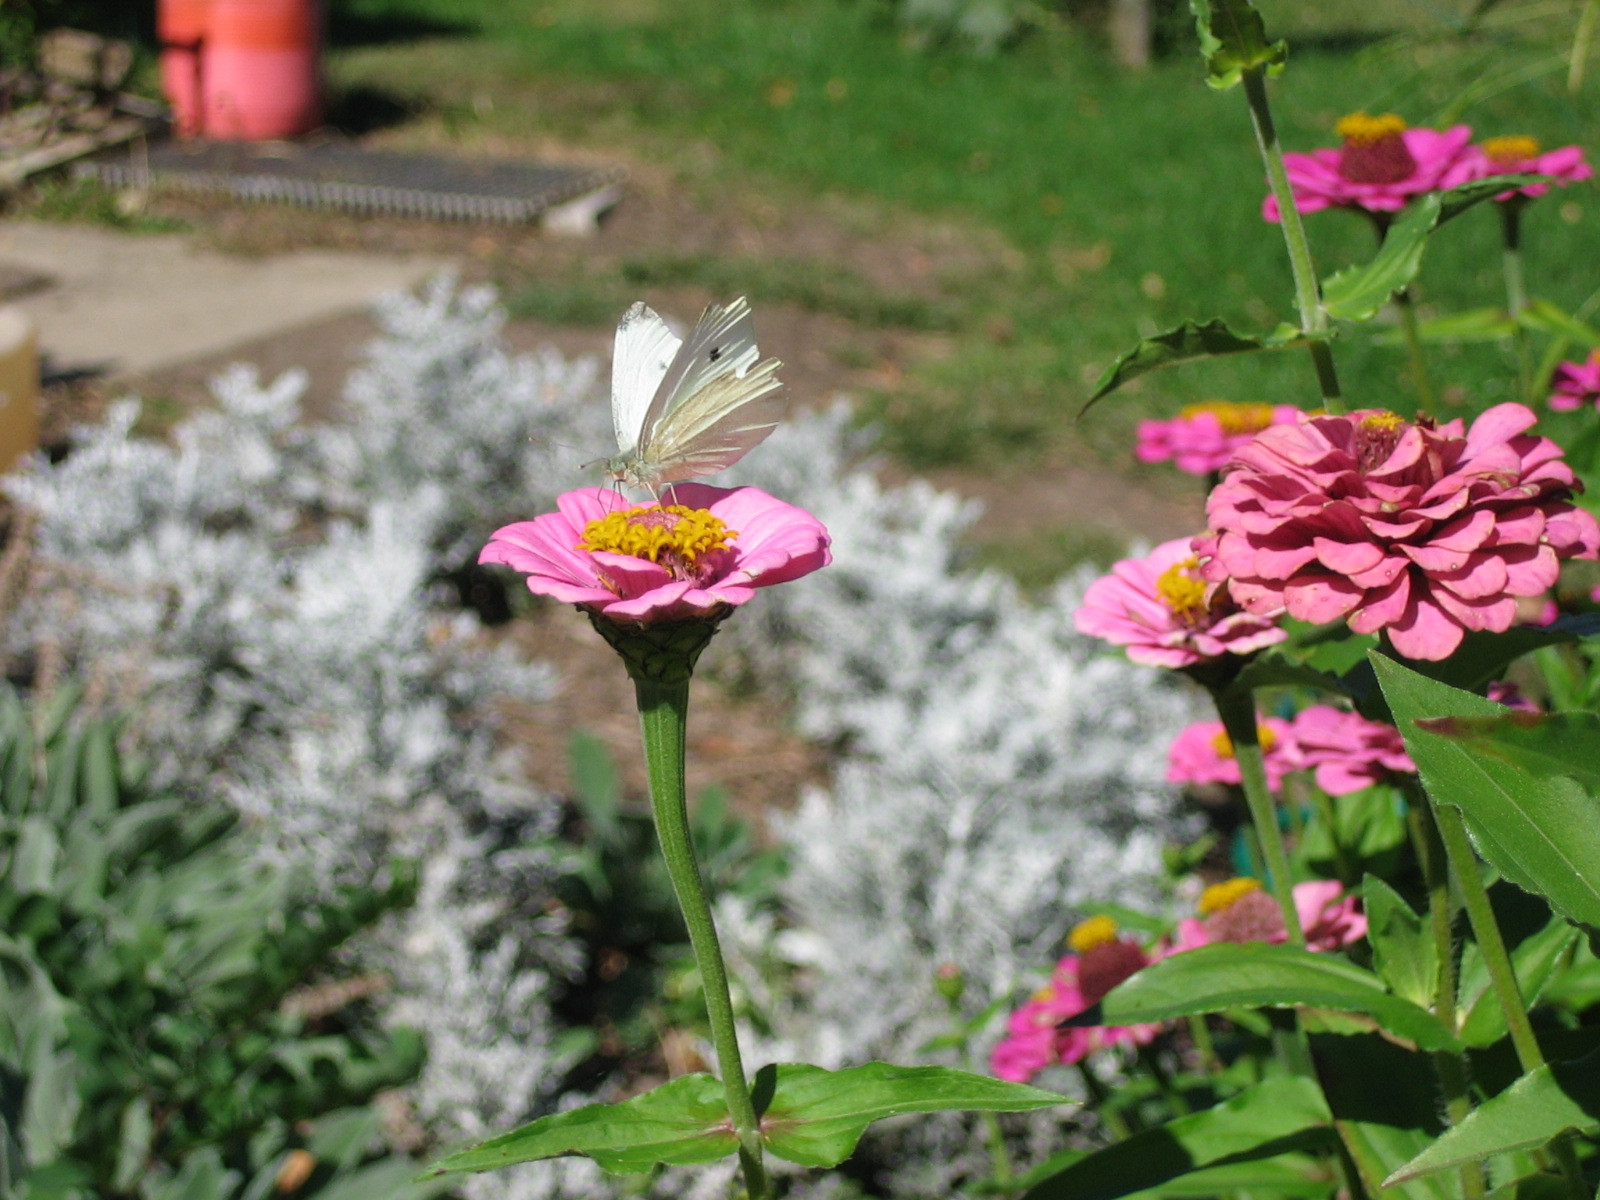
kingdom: Animalia
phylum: Arthropoda
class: Insecta
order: Lepidoptera
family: Pieridae
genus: Pieris
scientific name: Pieris rapae
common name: Small white
